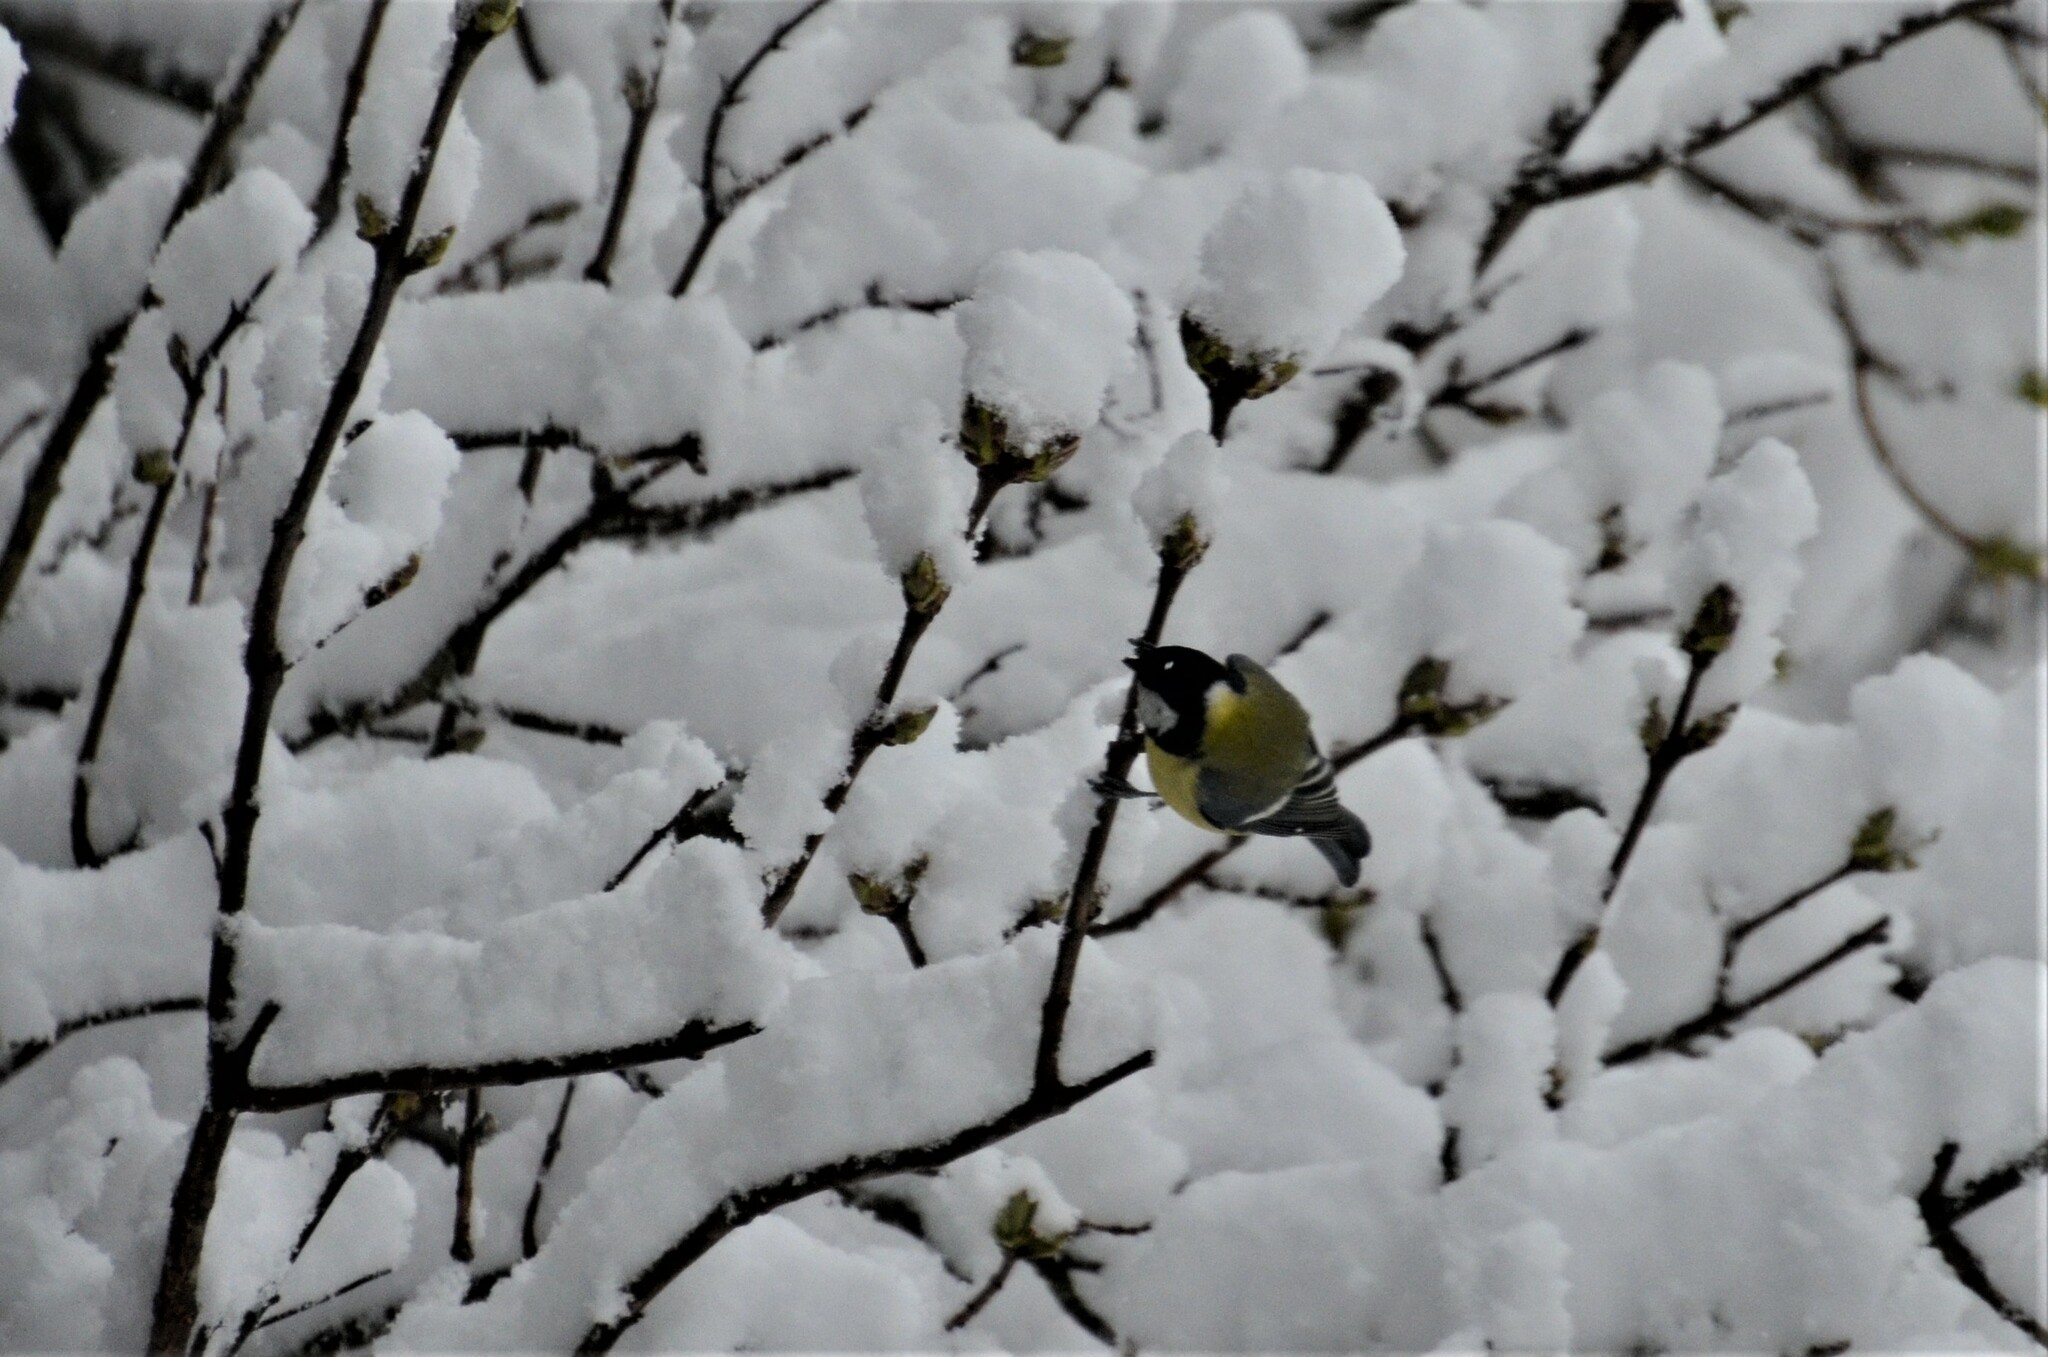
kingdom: Animalia
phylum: Chordata
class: Aves
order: Passeriformes
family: Paridae
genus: Parus
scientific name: Parus major
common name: Great tit
